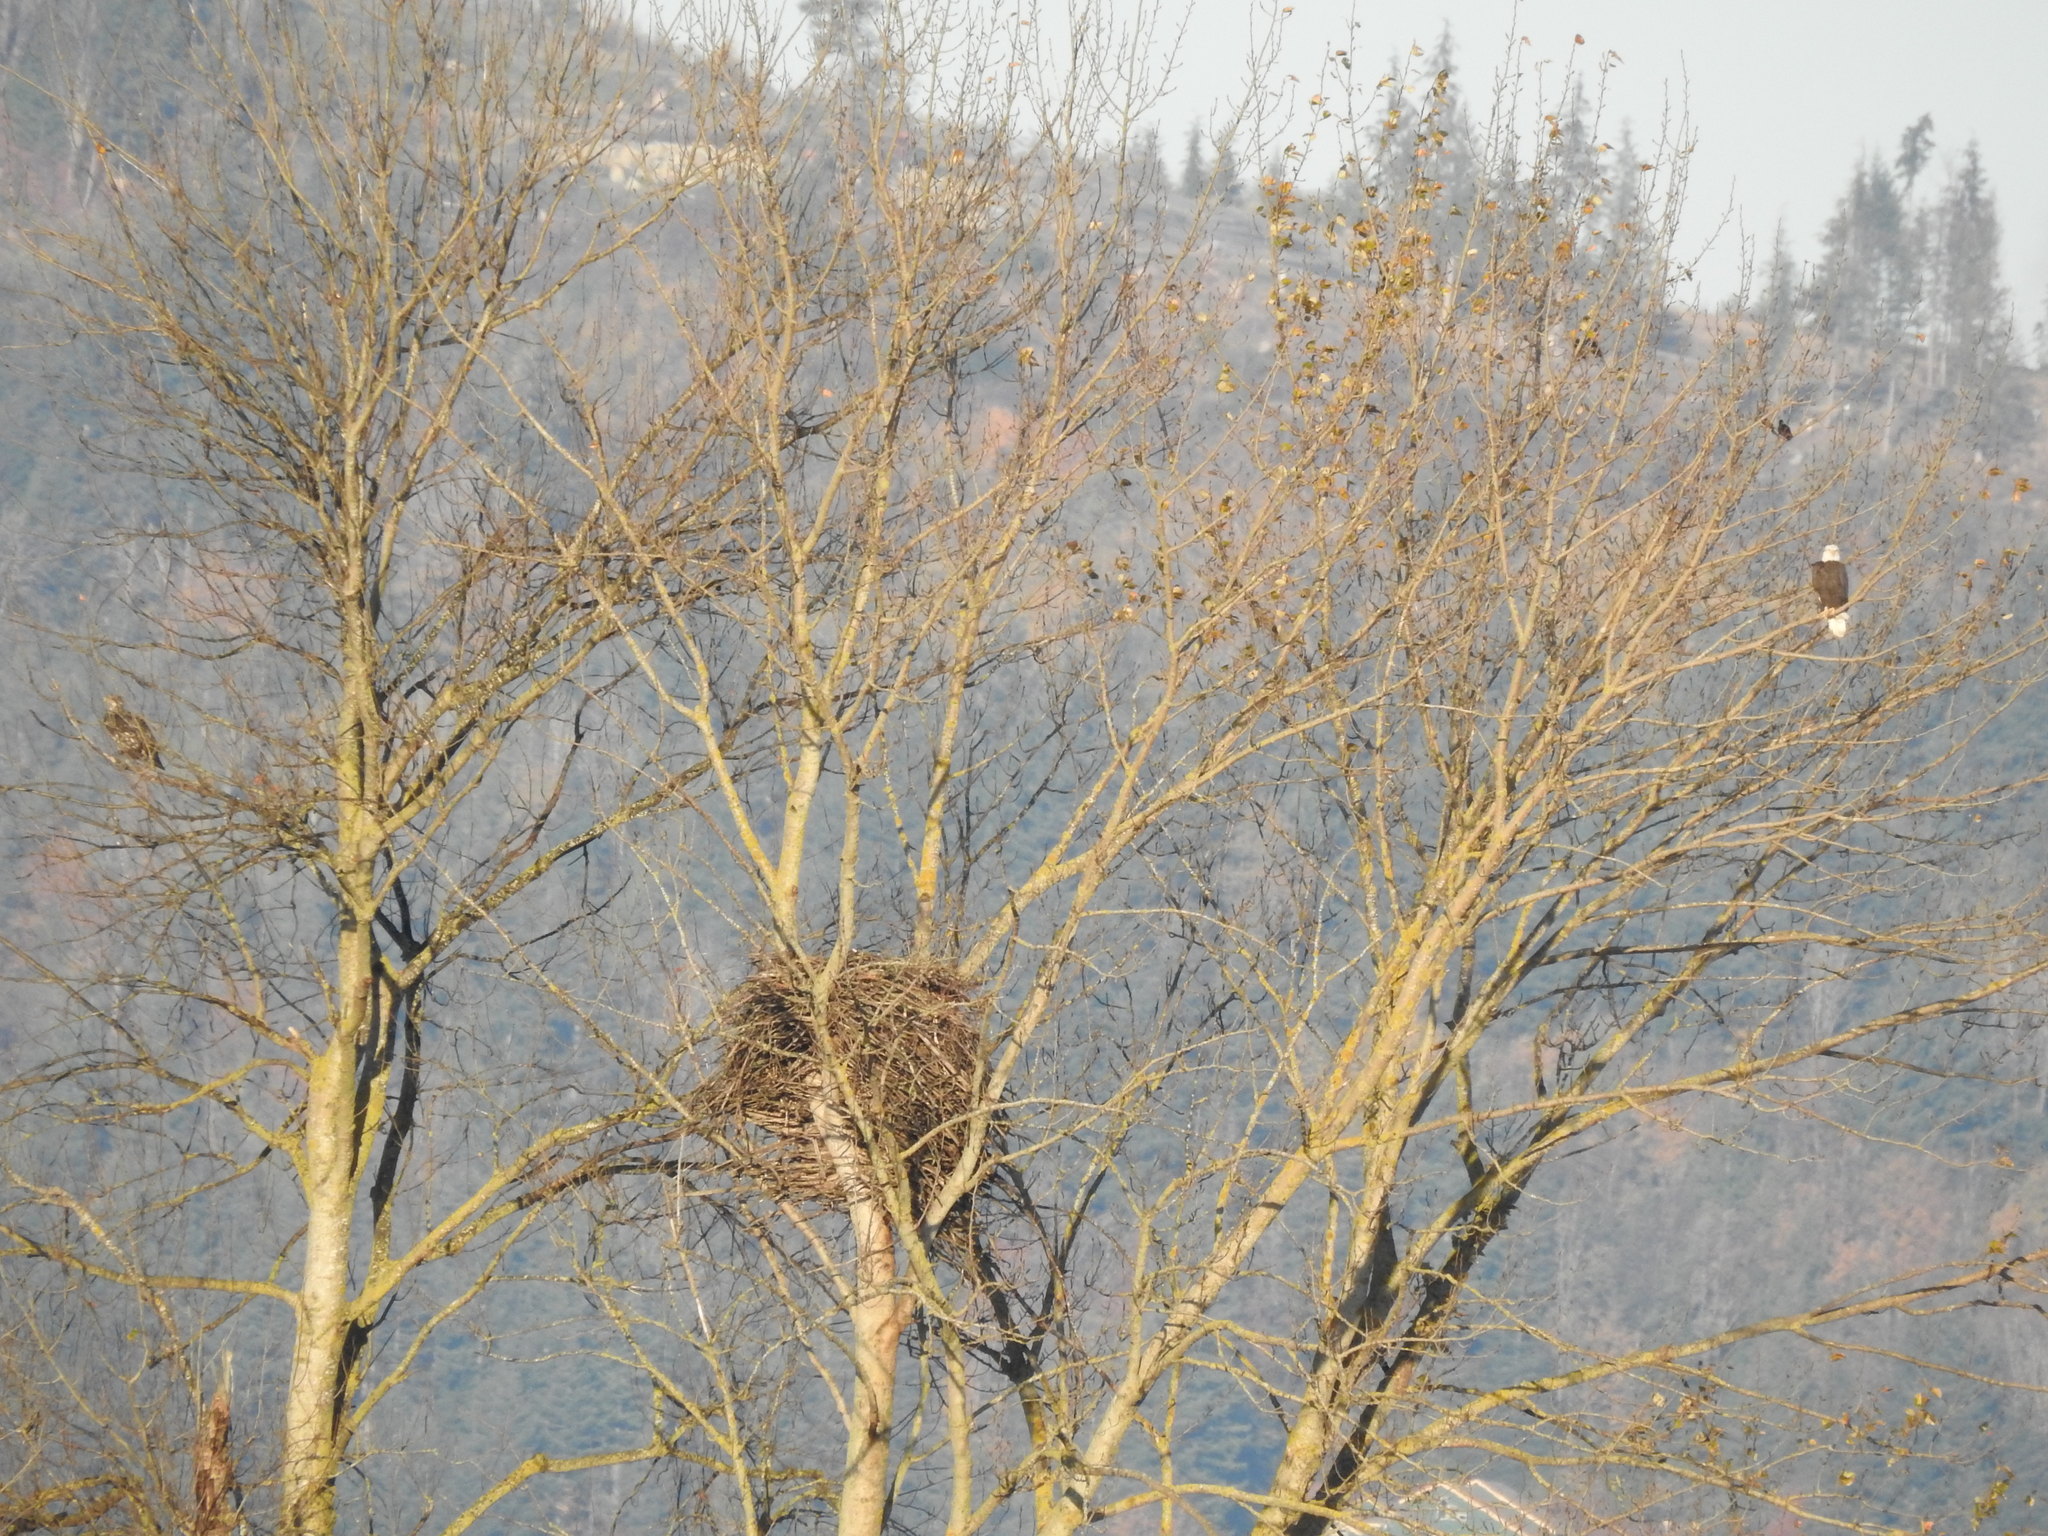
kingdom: Animalia
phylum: Chordata
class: Aves
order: Accipitriformes
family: Accipitridae
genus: Haliaeetus
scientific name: Haliaeetus leucocephalus
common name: Bald eagle
